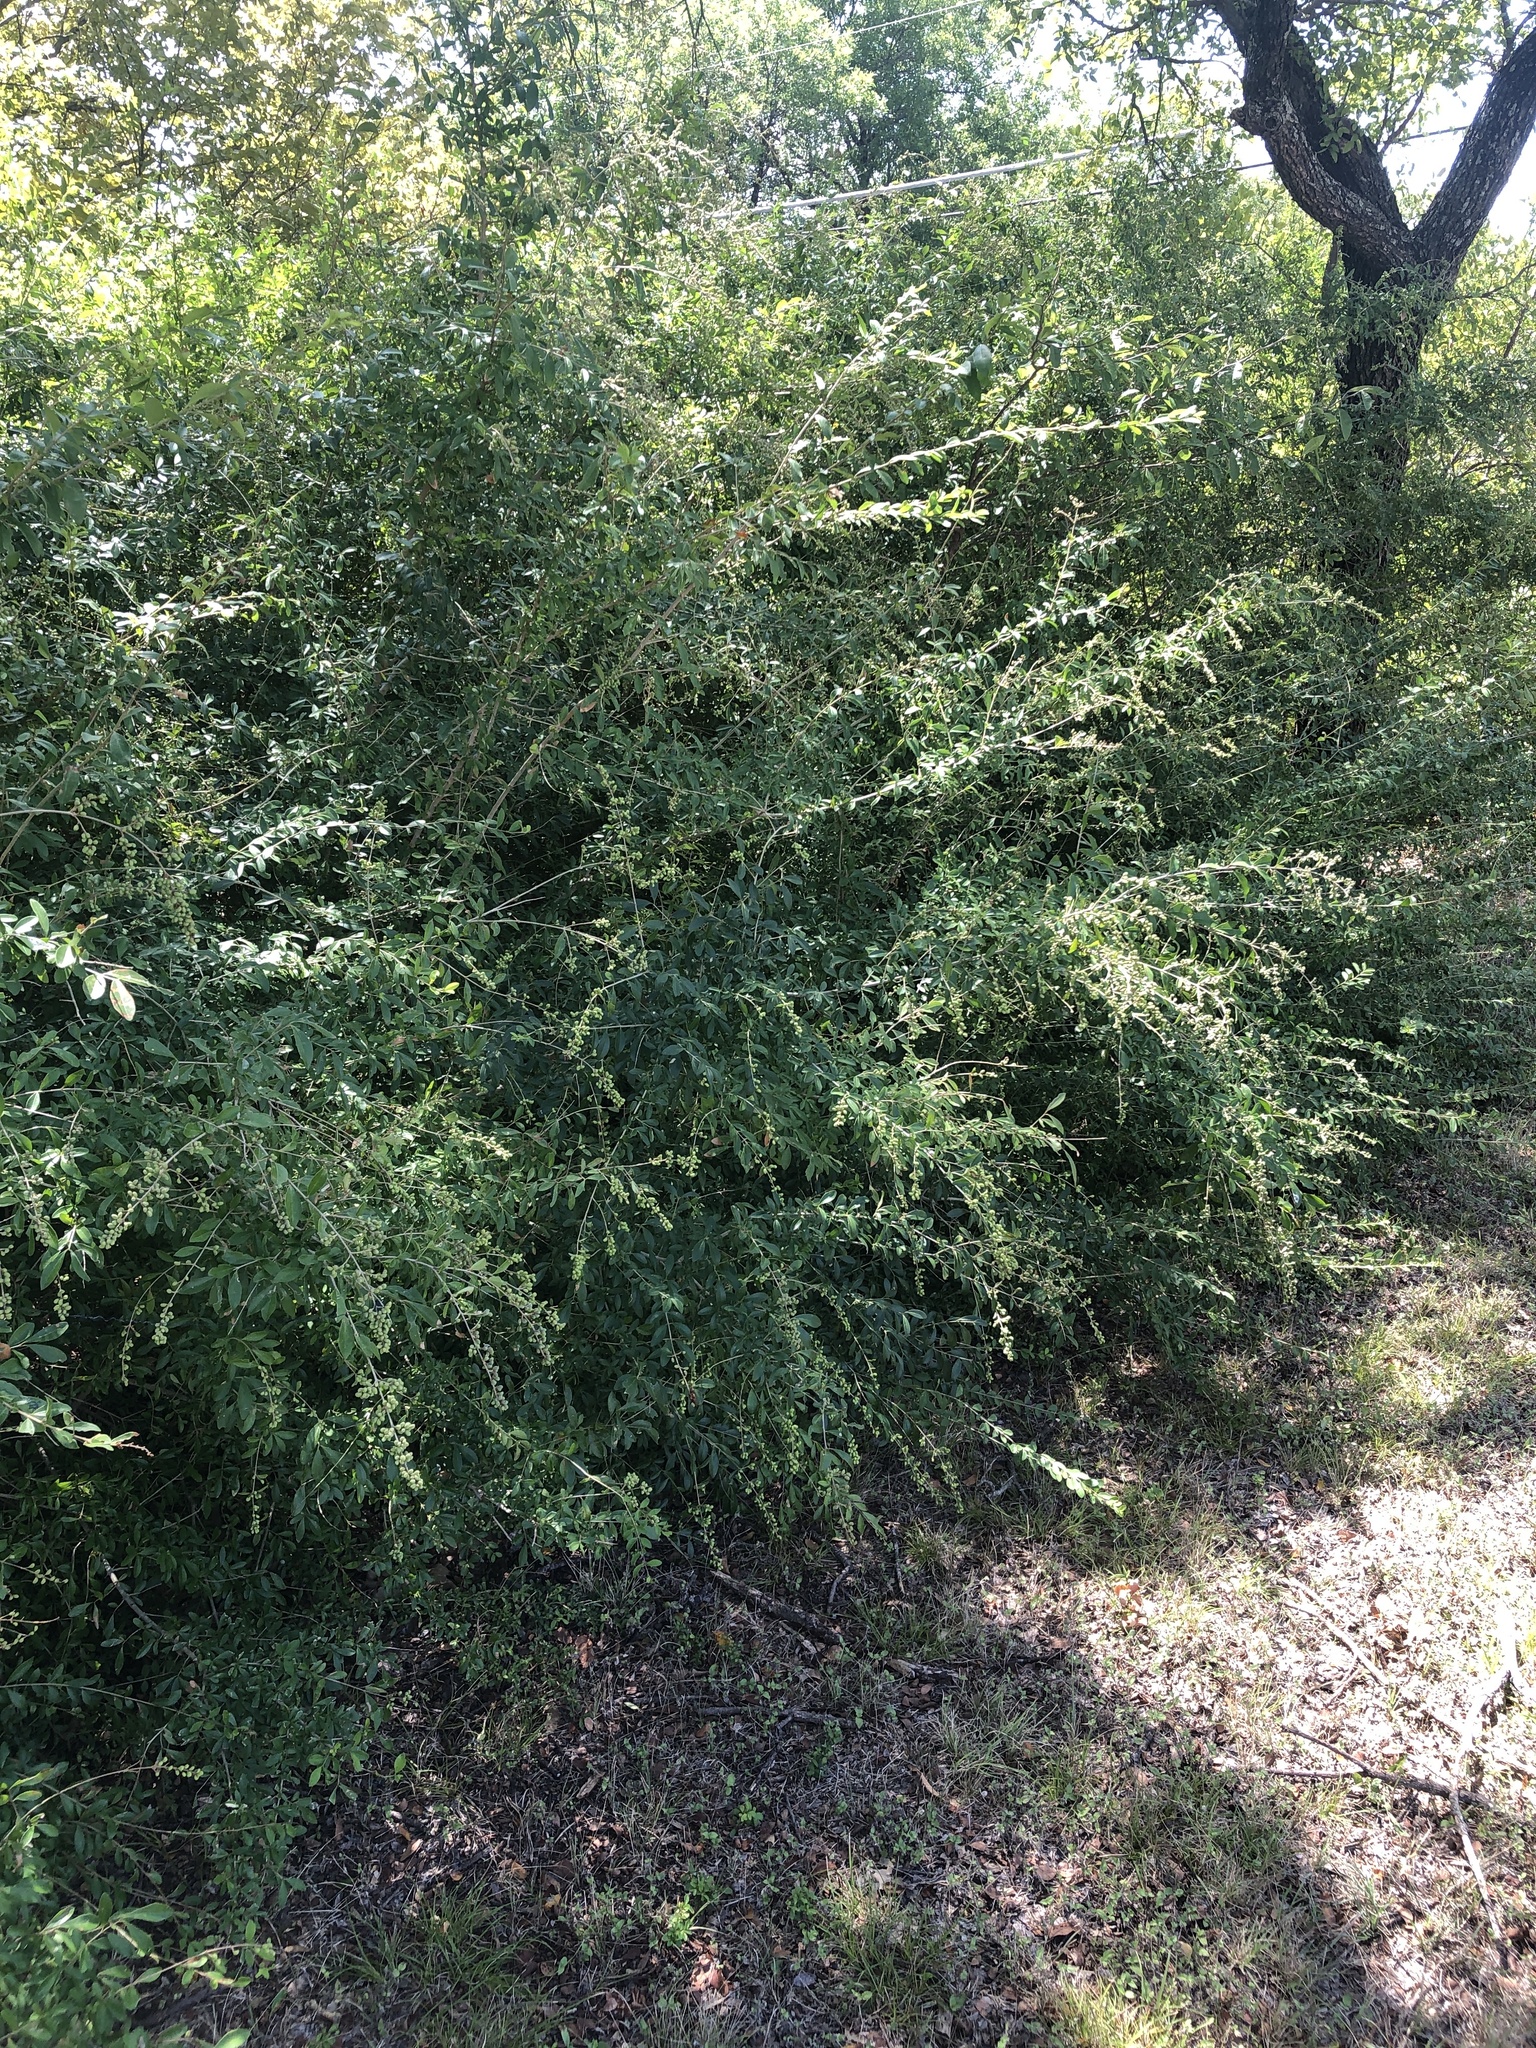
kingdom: Plantae
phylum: Tracheophyta
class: Magnoliopsida
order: Lamiales
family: Oleaceae
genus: Ligustrum
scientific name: Ligustrum quihoui
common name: Waxyleaf privet
